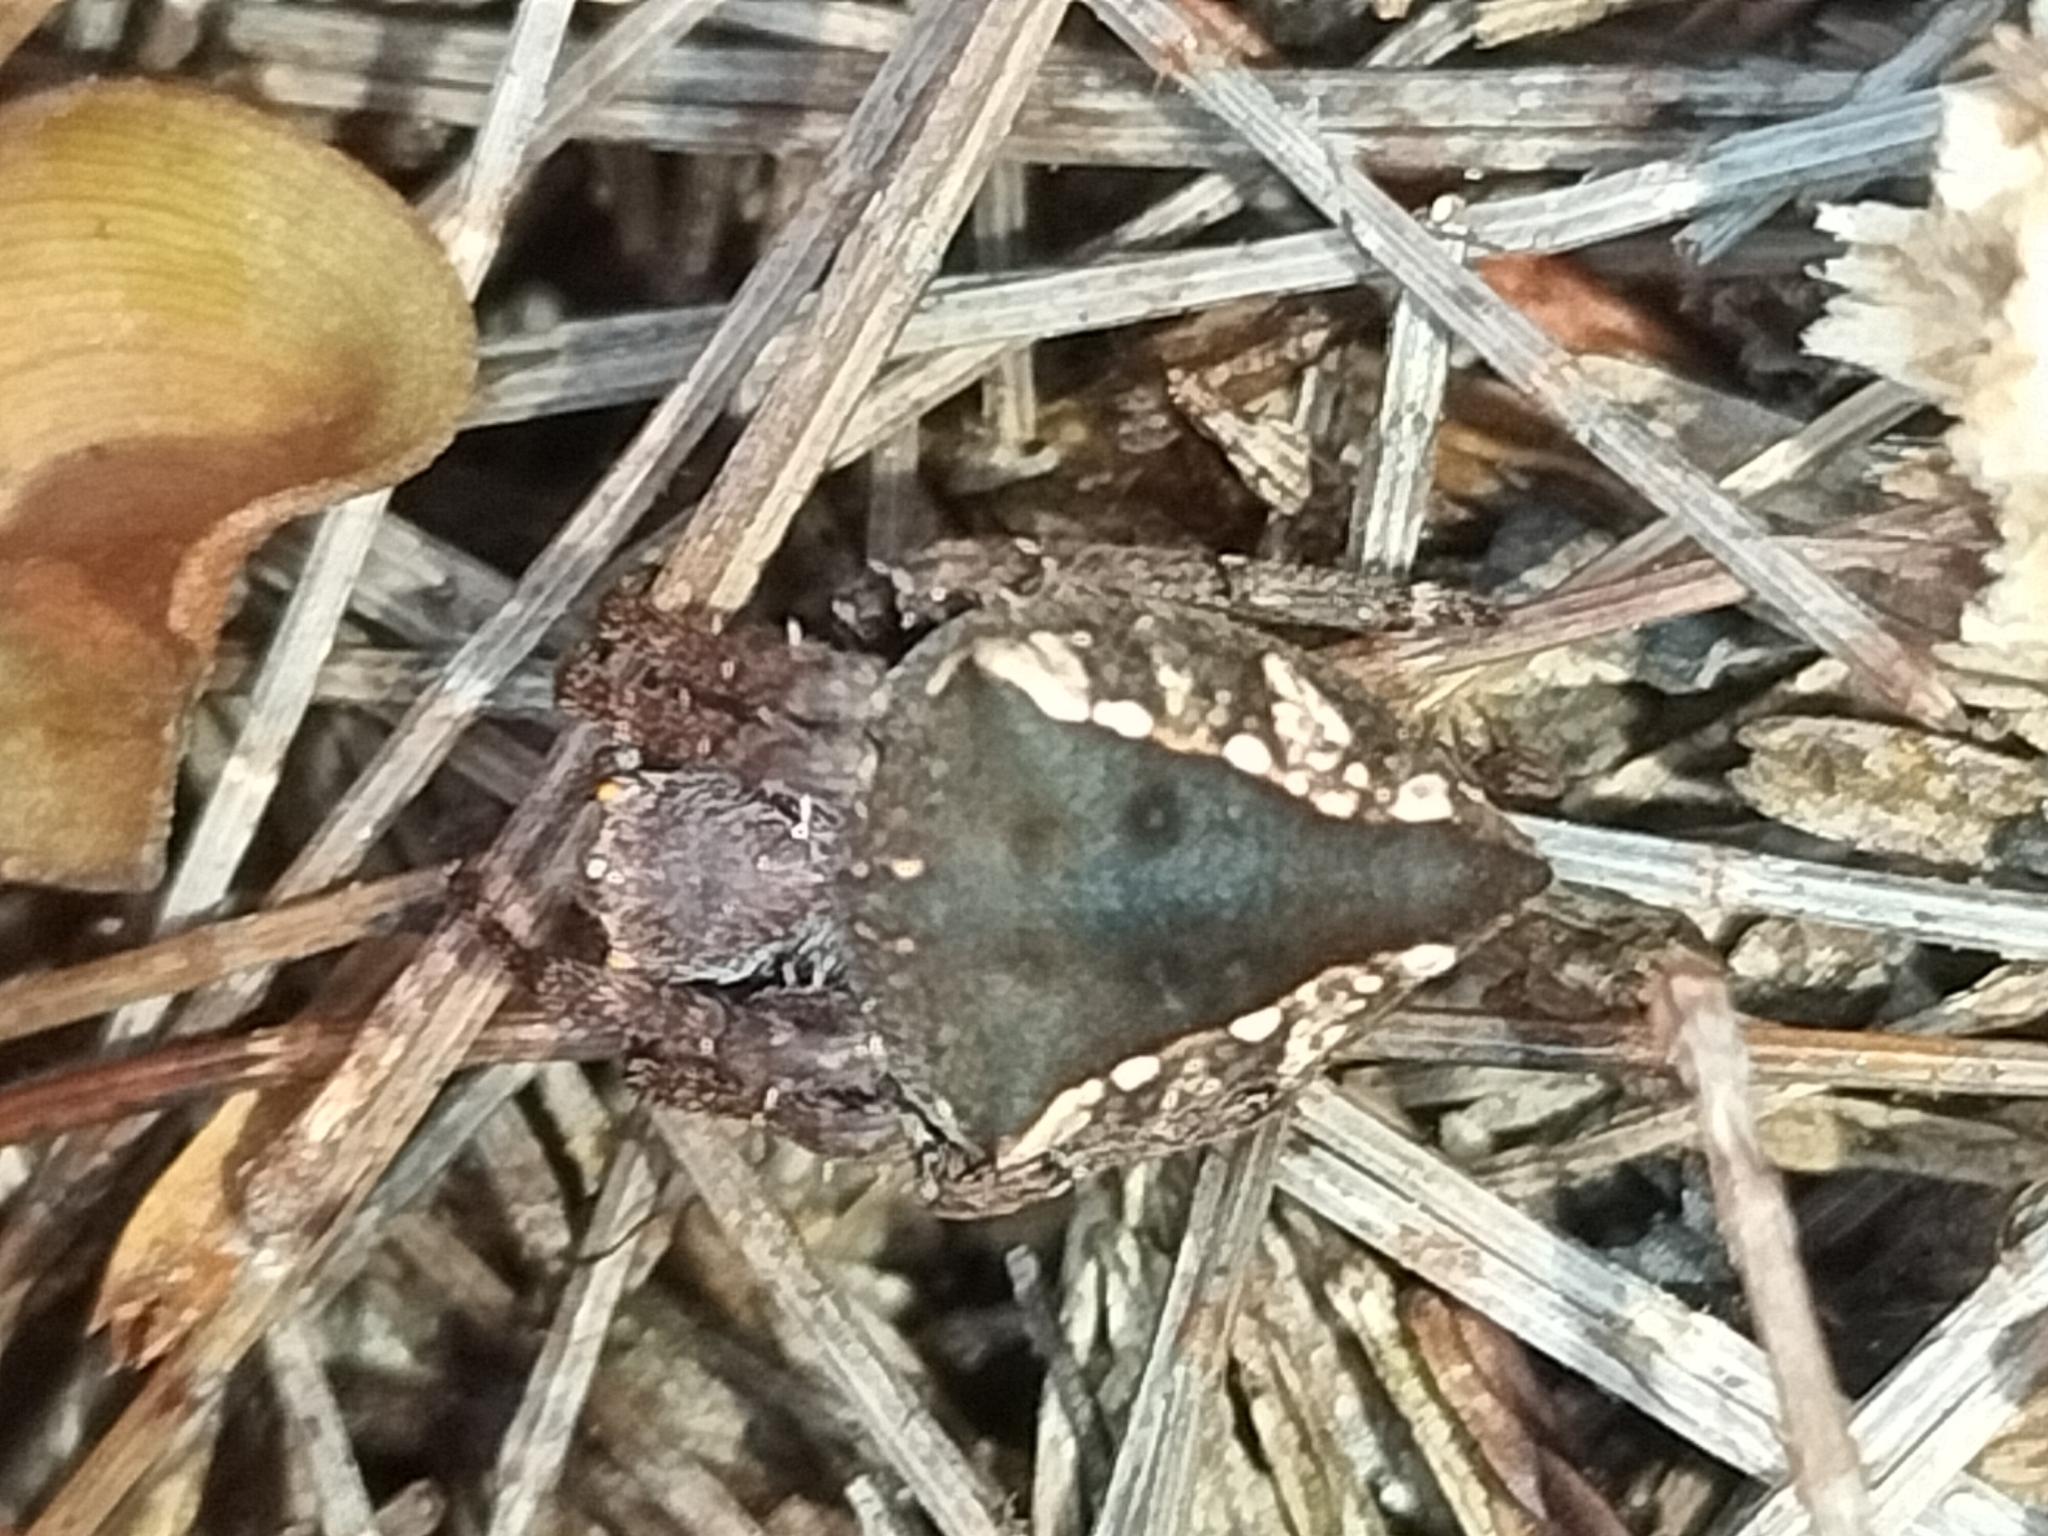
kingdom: Animalia
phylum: Arthropoda
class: Arachnida
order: Araneae
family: Araneidae
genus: Parawixia
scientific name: Parawixia dehaani
